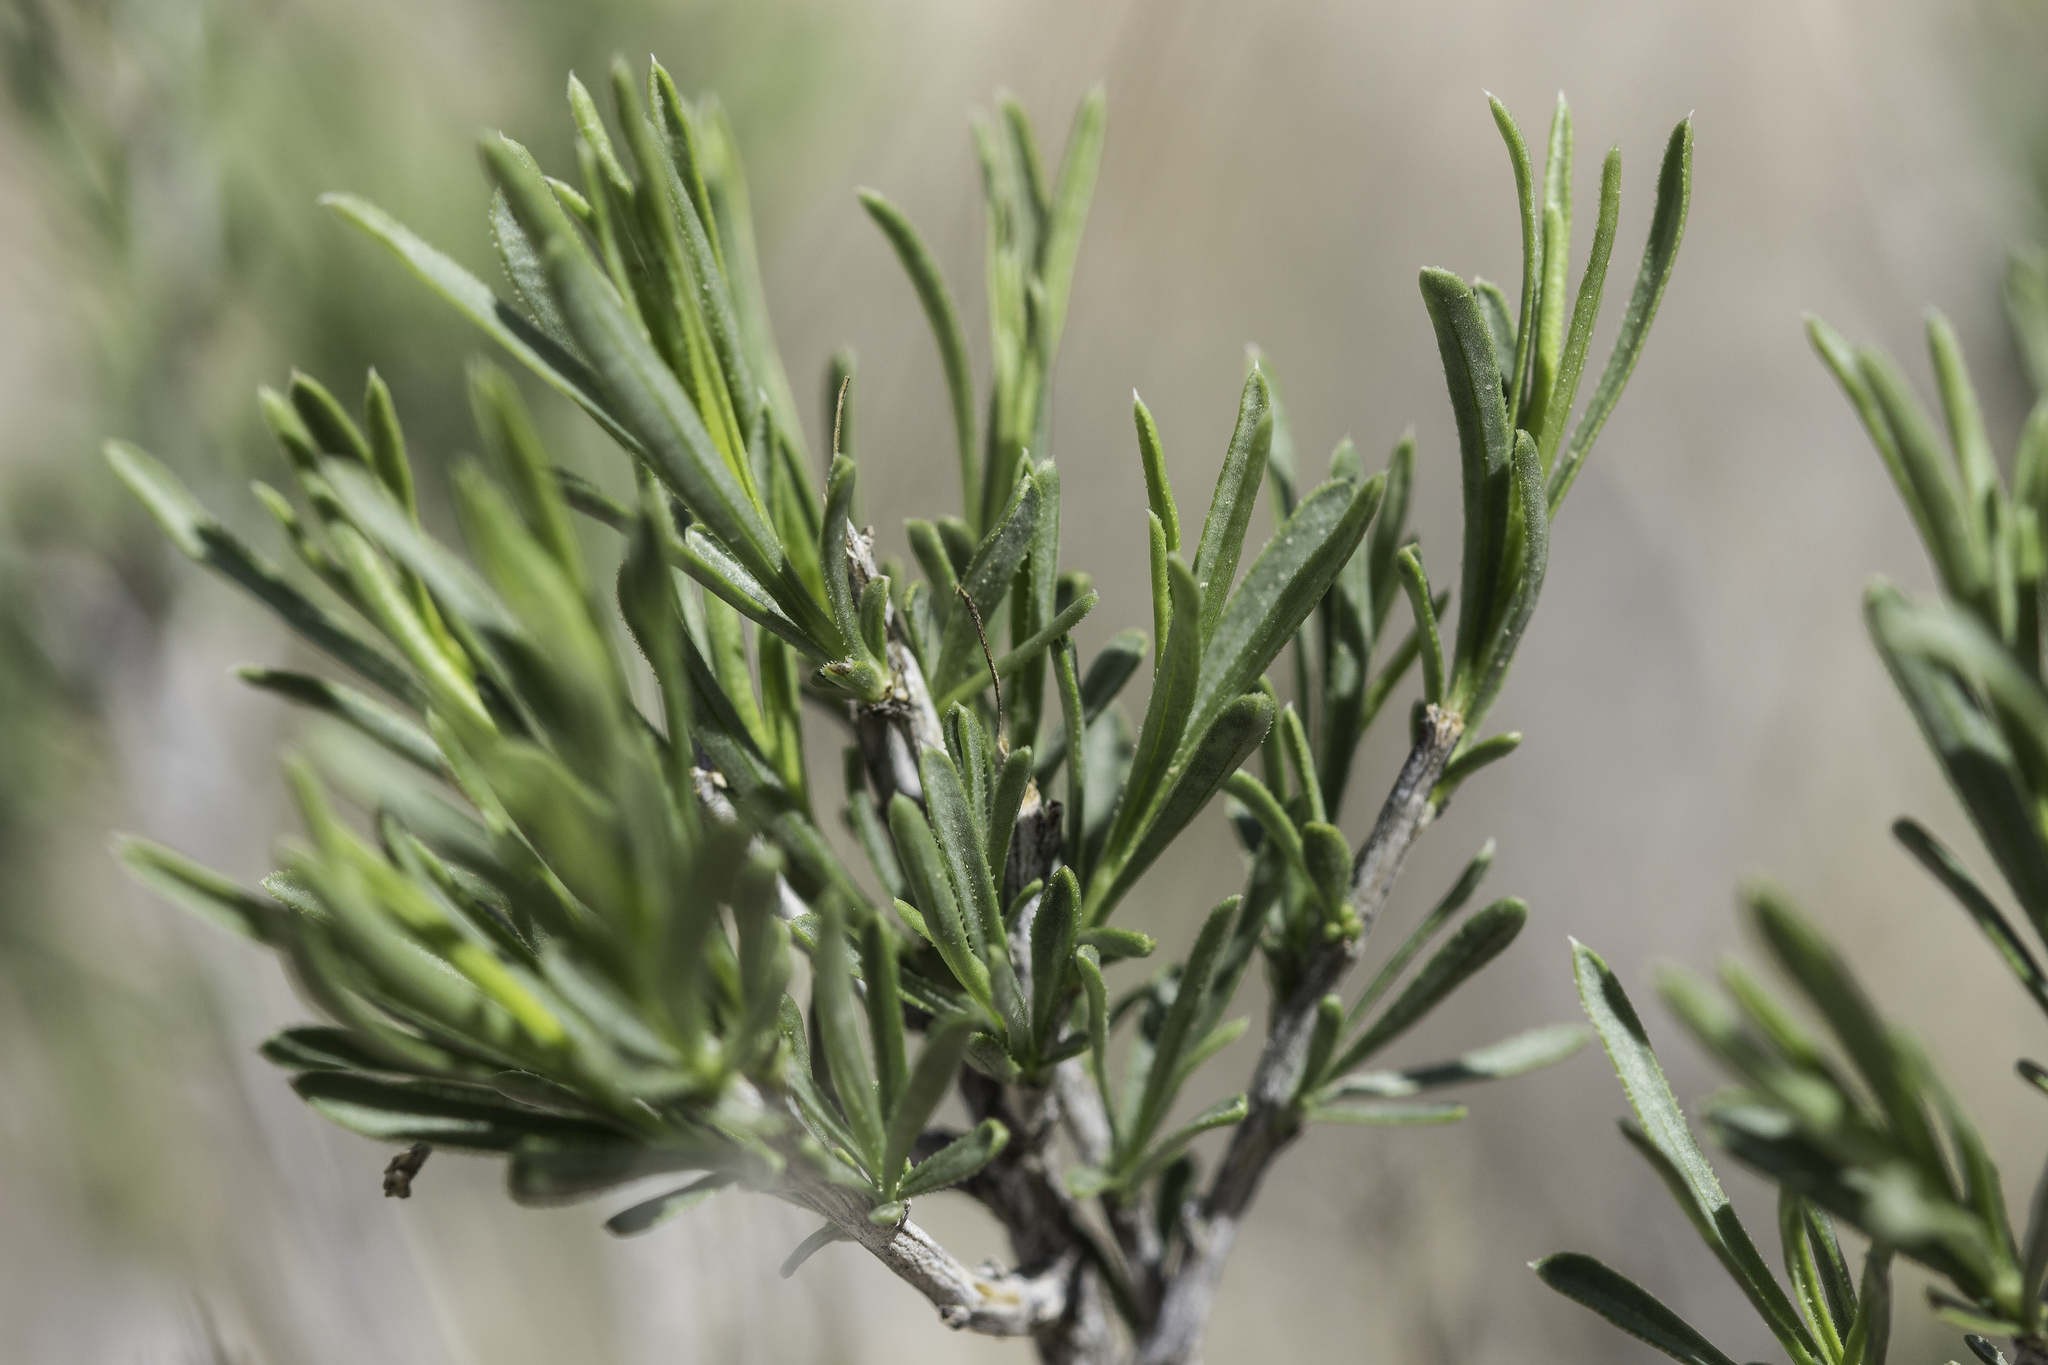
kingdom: Plantae
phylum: Tracheophyta
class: Magnoliopsida
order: Asterales
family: Asteraceae
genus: Lorandersonia
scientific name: Lorandersonia baileyi
